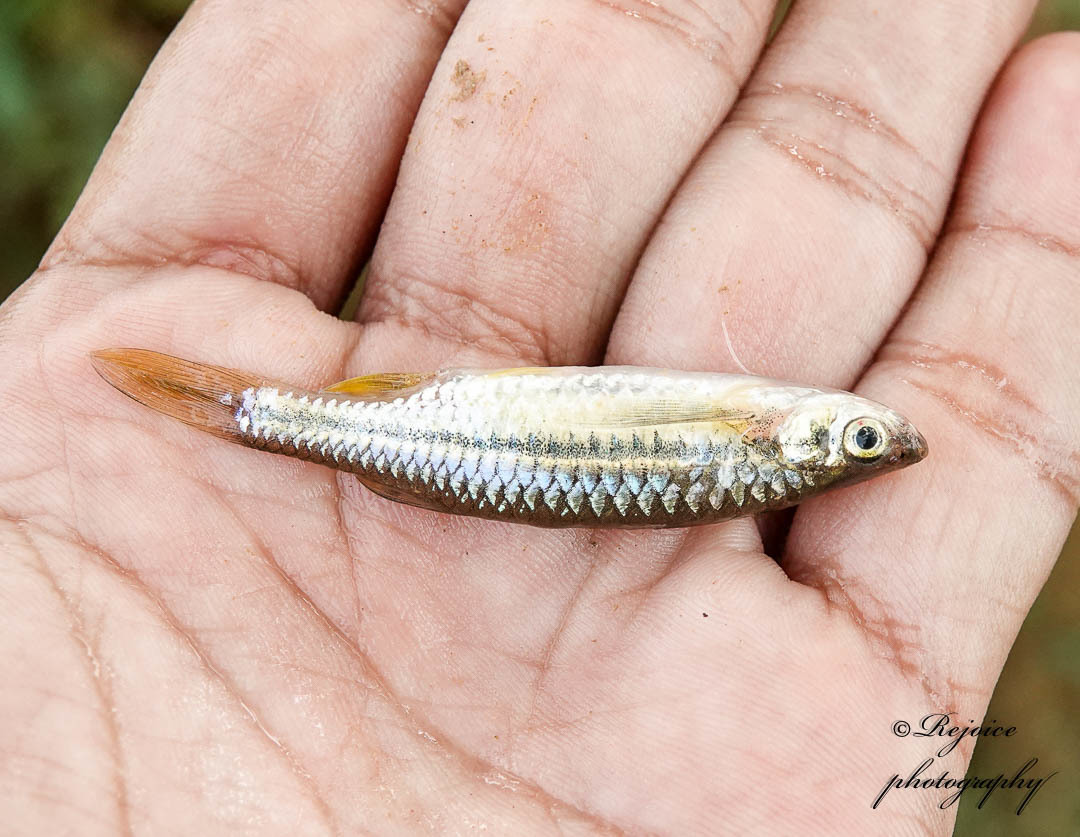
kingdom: Animalia
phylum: Chordata
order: Cypriniformes
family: Cyprinidae
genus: Esomus
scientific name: Esomus danrica
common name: Flying barb
